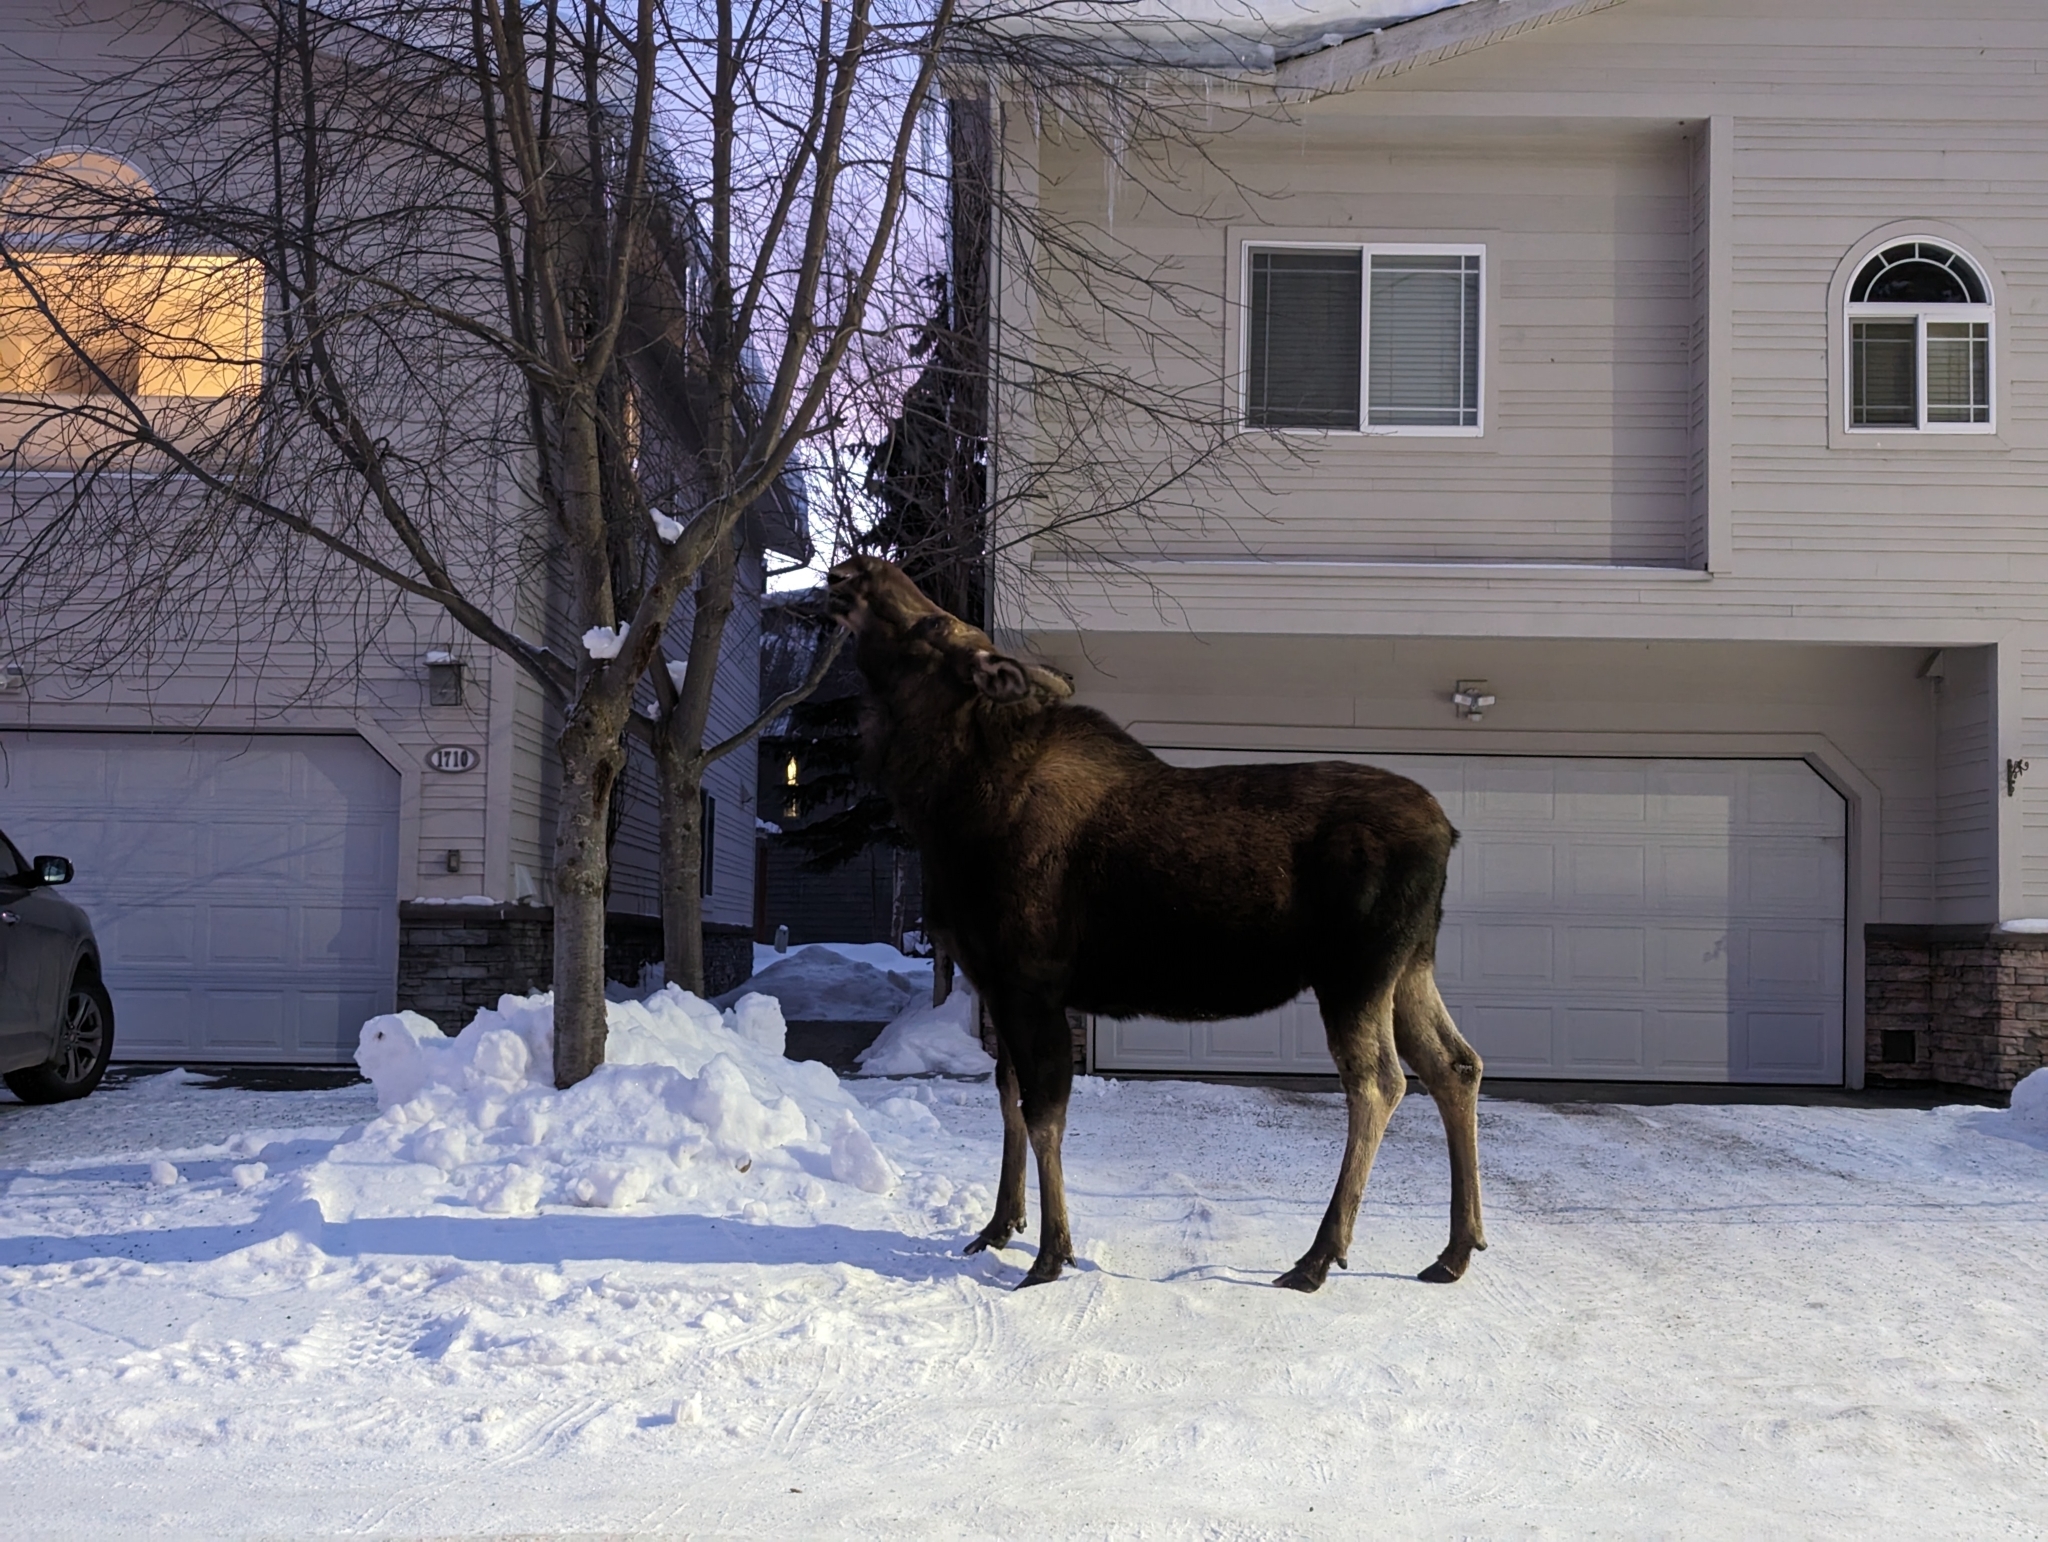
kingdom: Animalia
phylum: Chordata
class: Mammalia
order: Artiodactyla
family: Cervidae
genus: Alces
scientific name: Alces alces
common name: Moose
